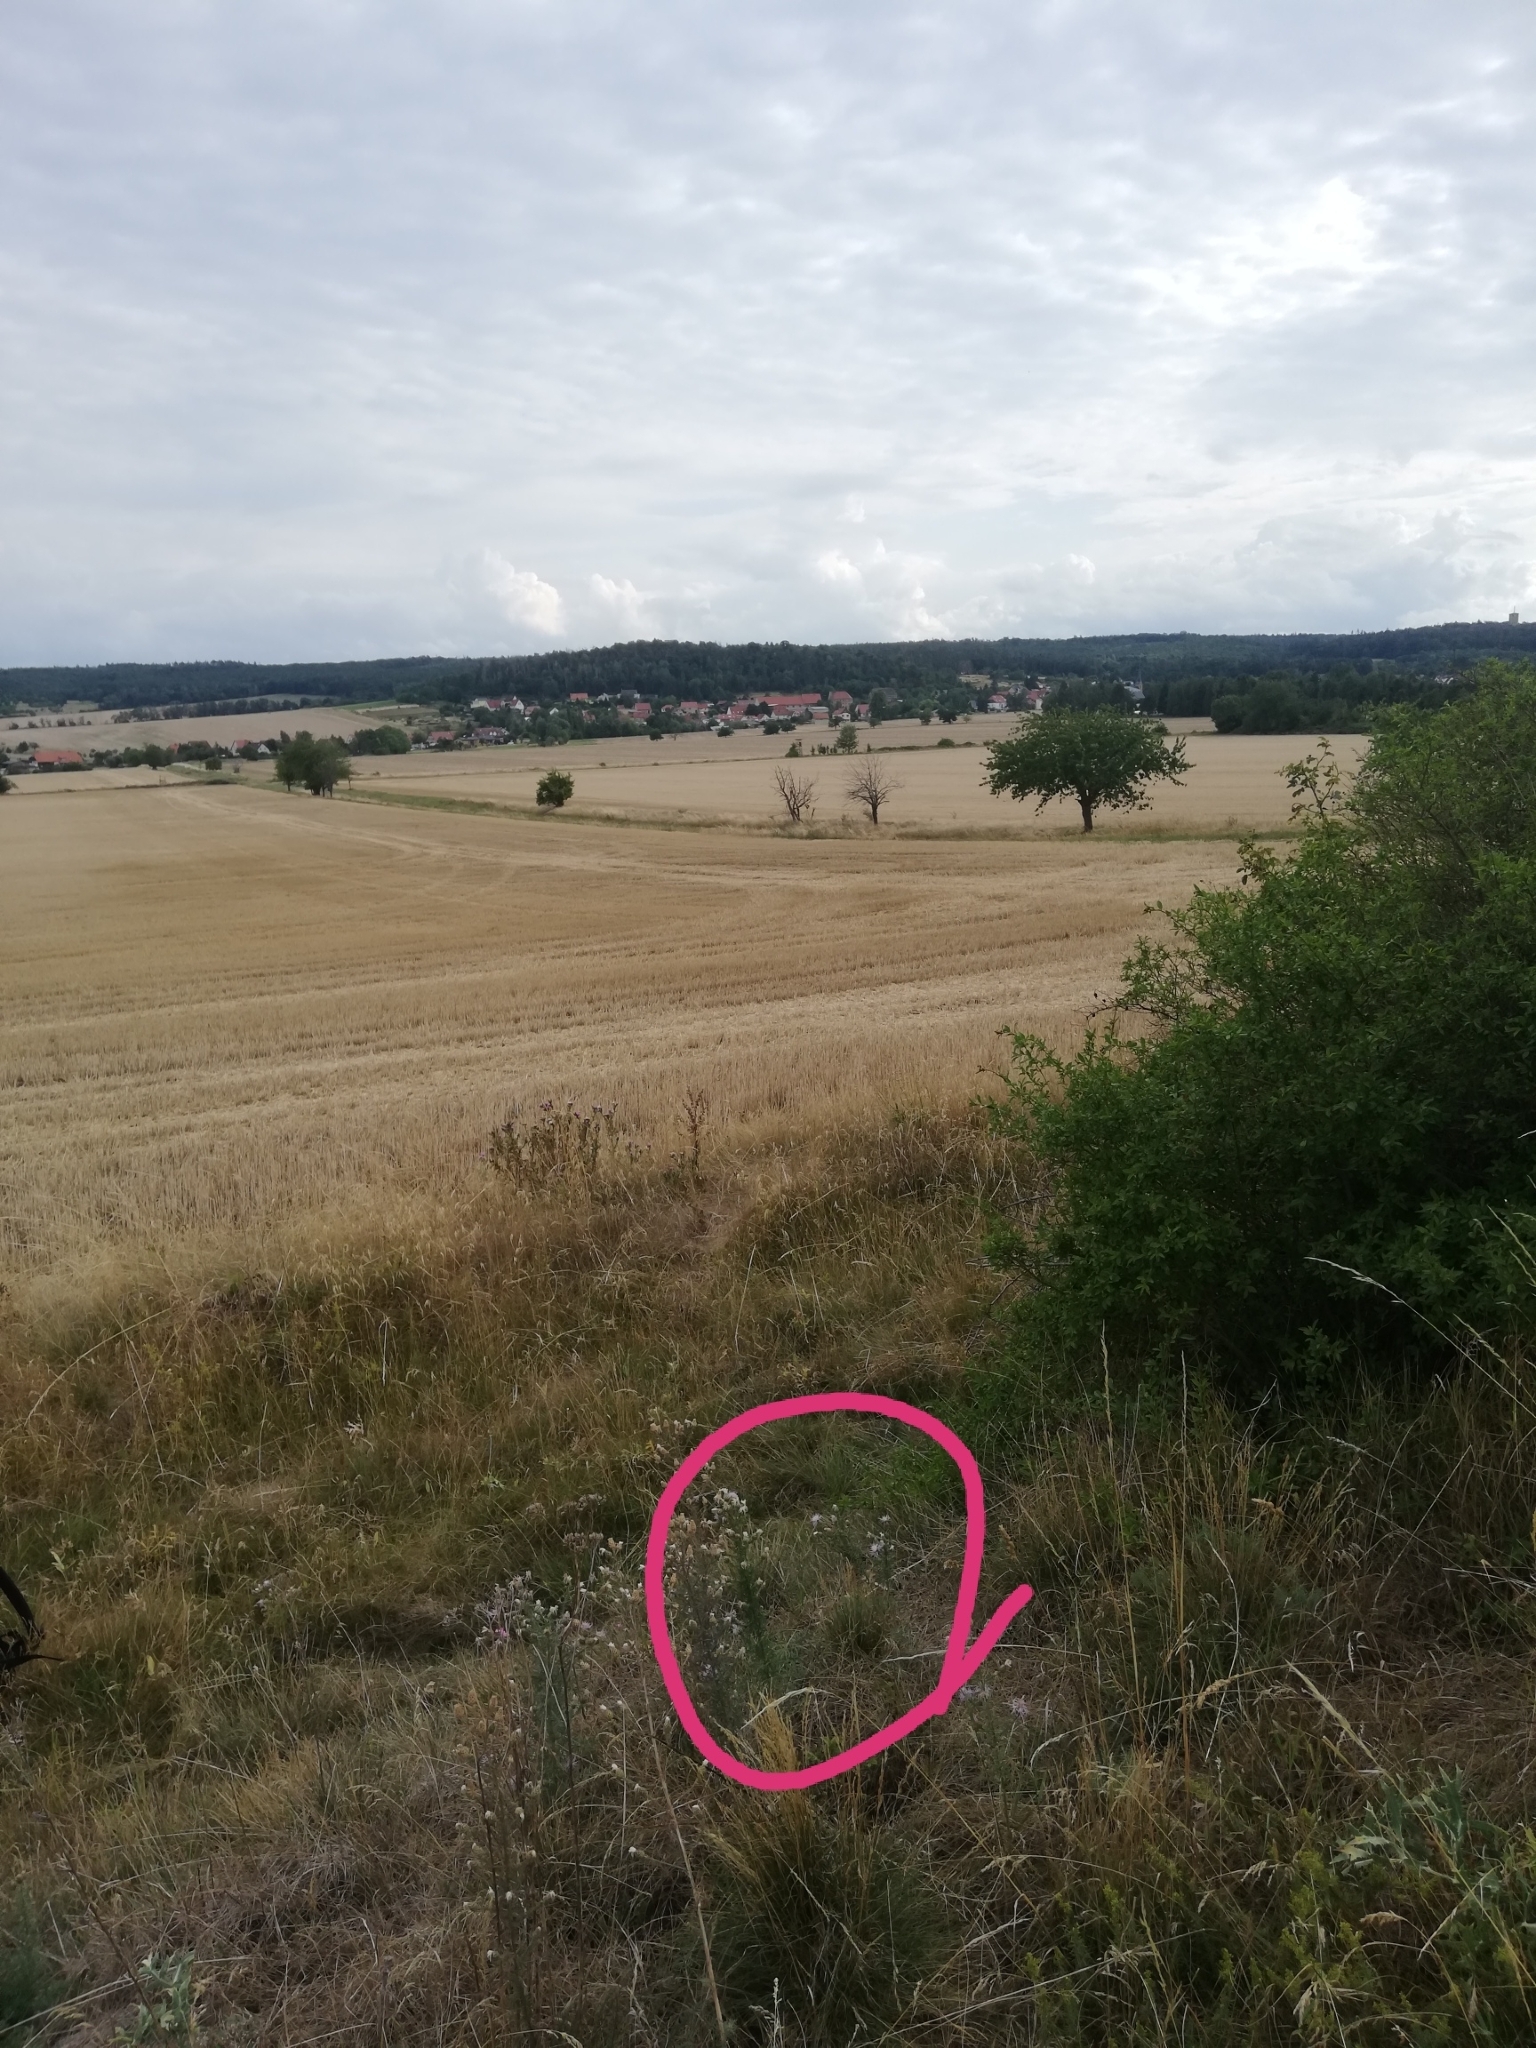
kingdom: Plantae
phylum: Tracheophyta
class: Magnoliopsida
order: Caryophyllales
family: Caryophyllaceae
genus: Dianthus
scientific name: Dianthus carthusianorum
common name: Carthusian pink
